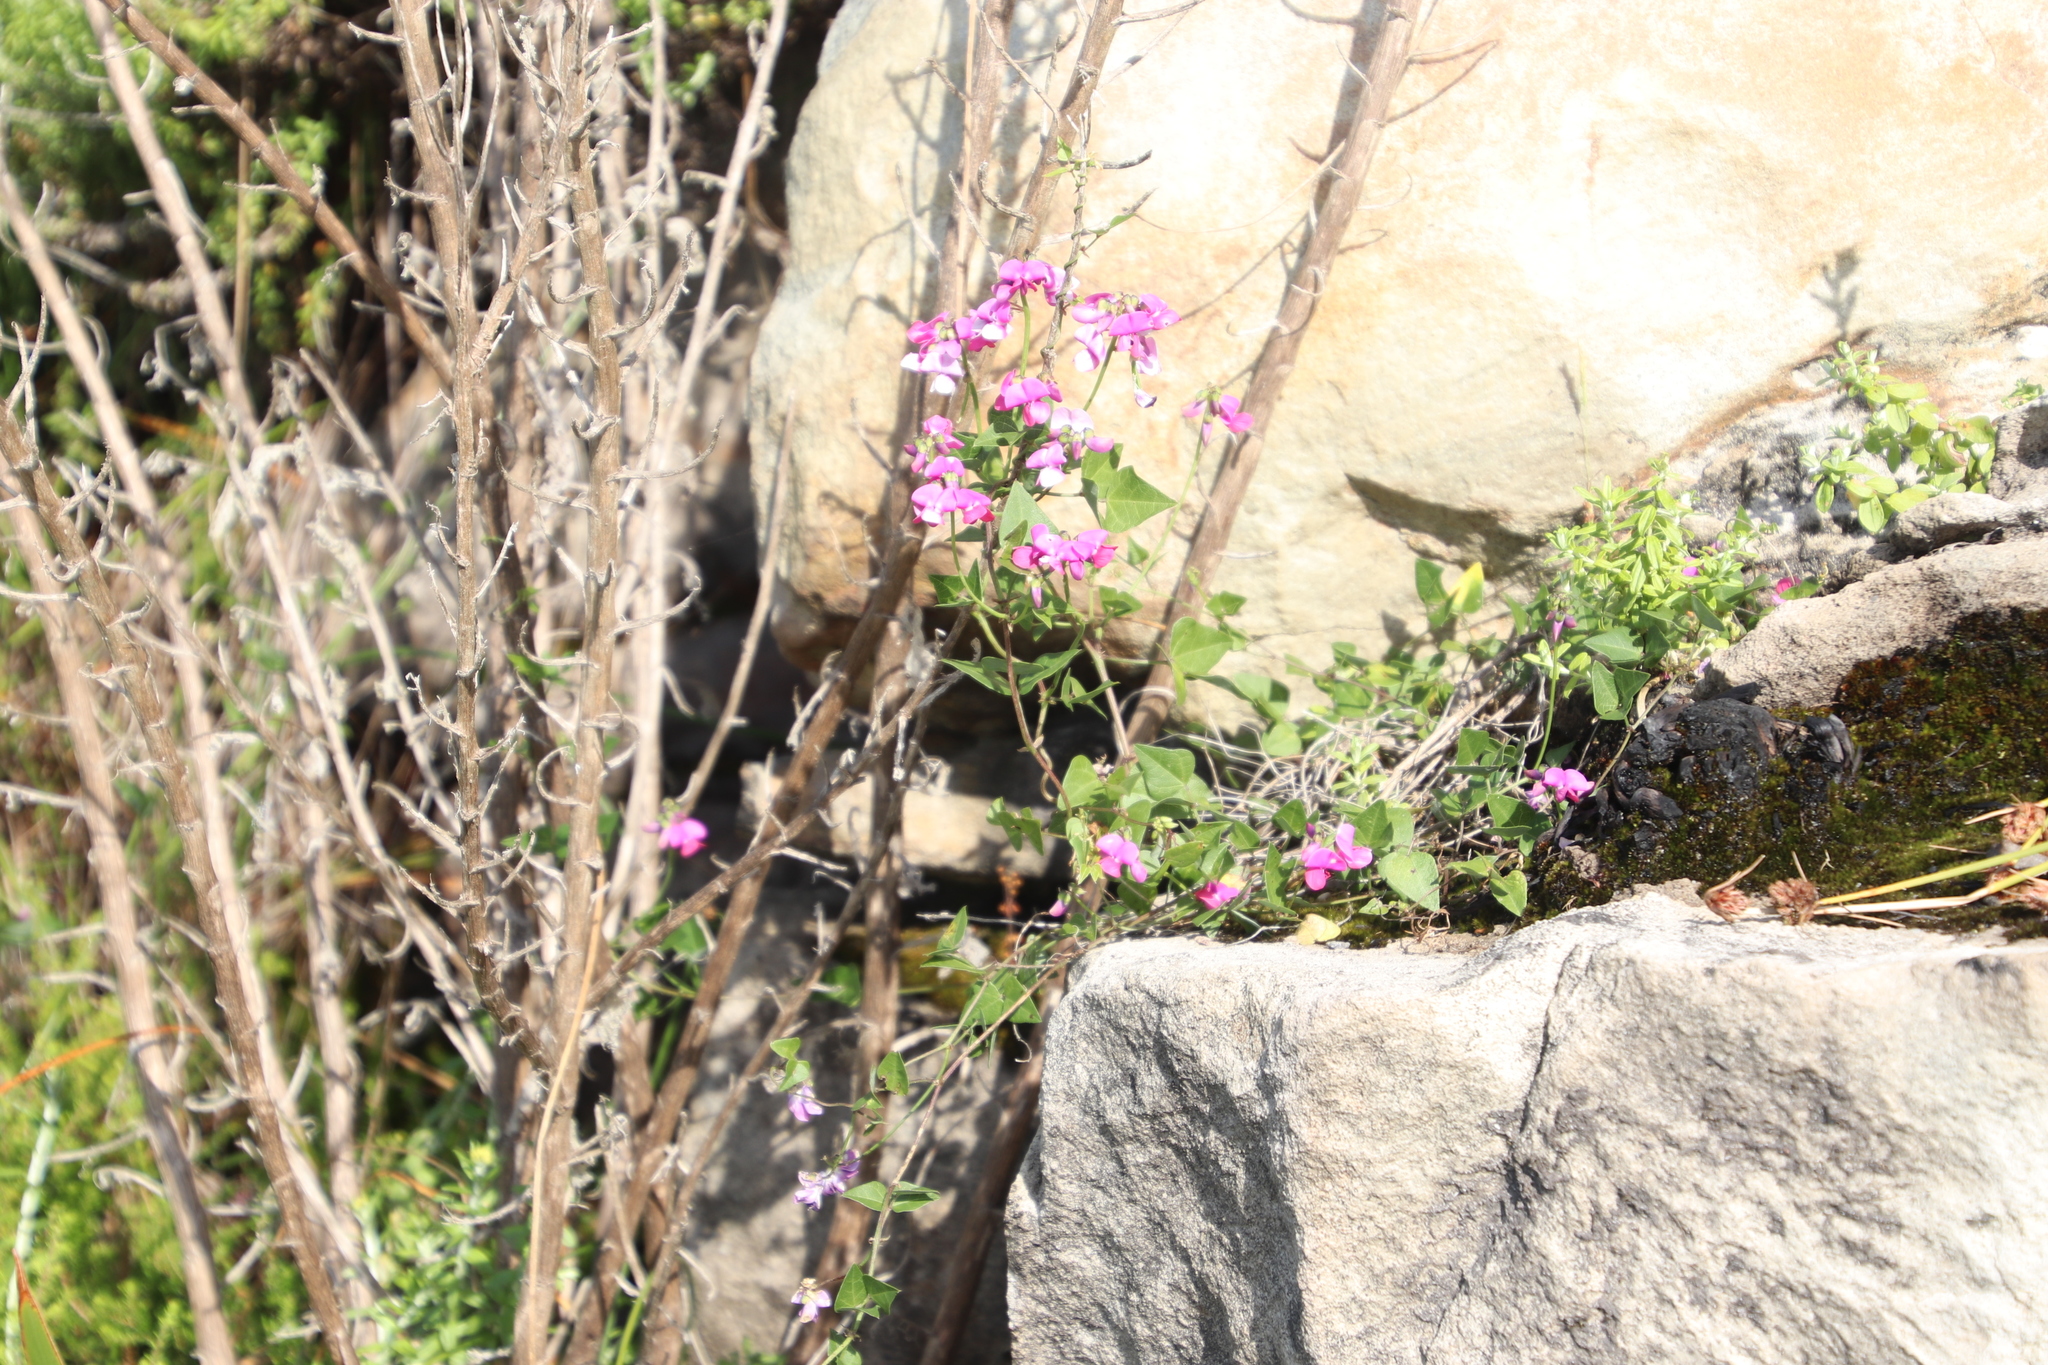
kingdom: Plantae
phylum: Tracheophyta
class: Magnoliopsida
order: Fabales
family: Fabaceae
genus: Dipogon
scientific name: Dipogon lignosus
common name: Okie bean
